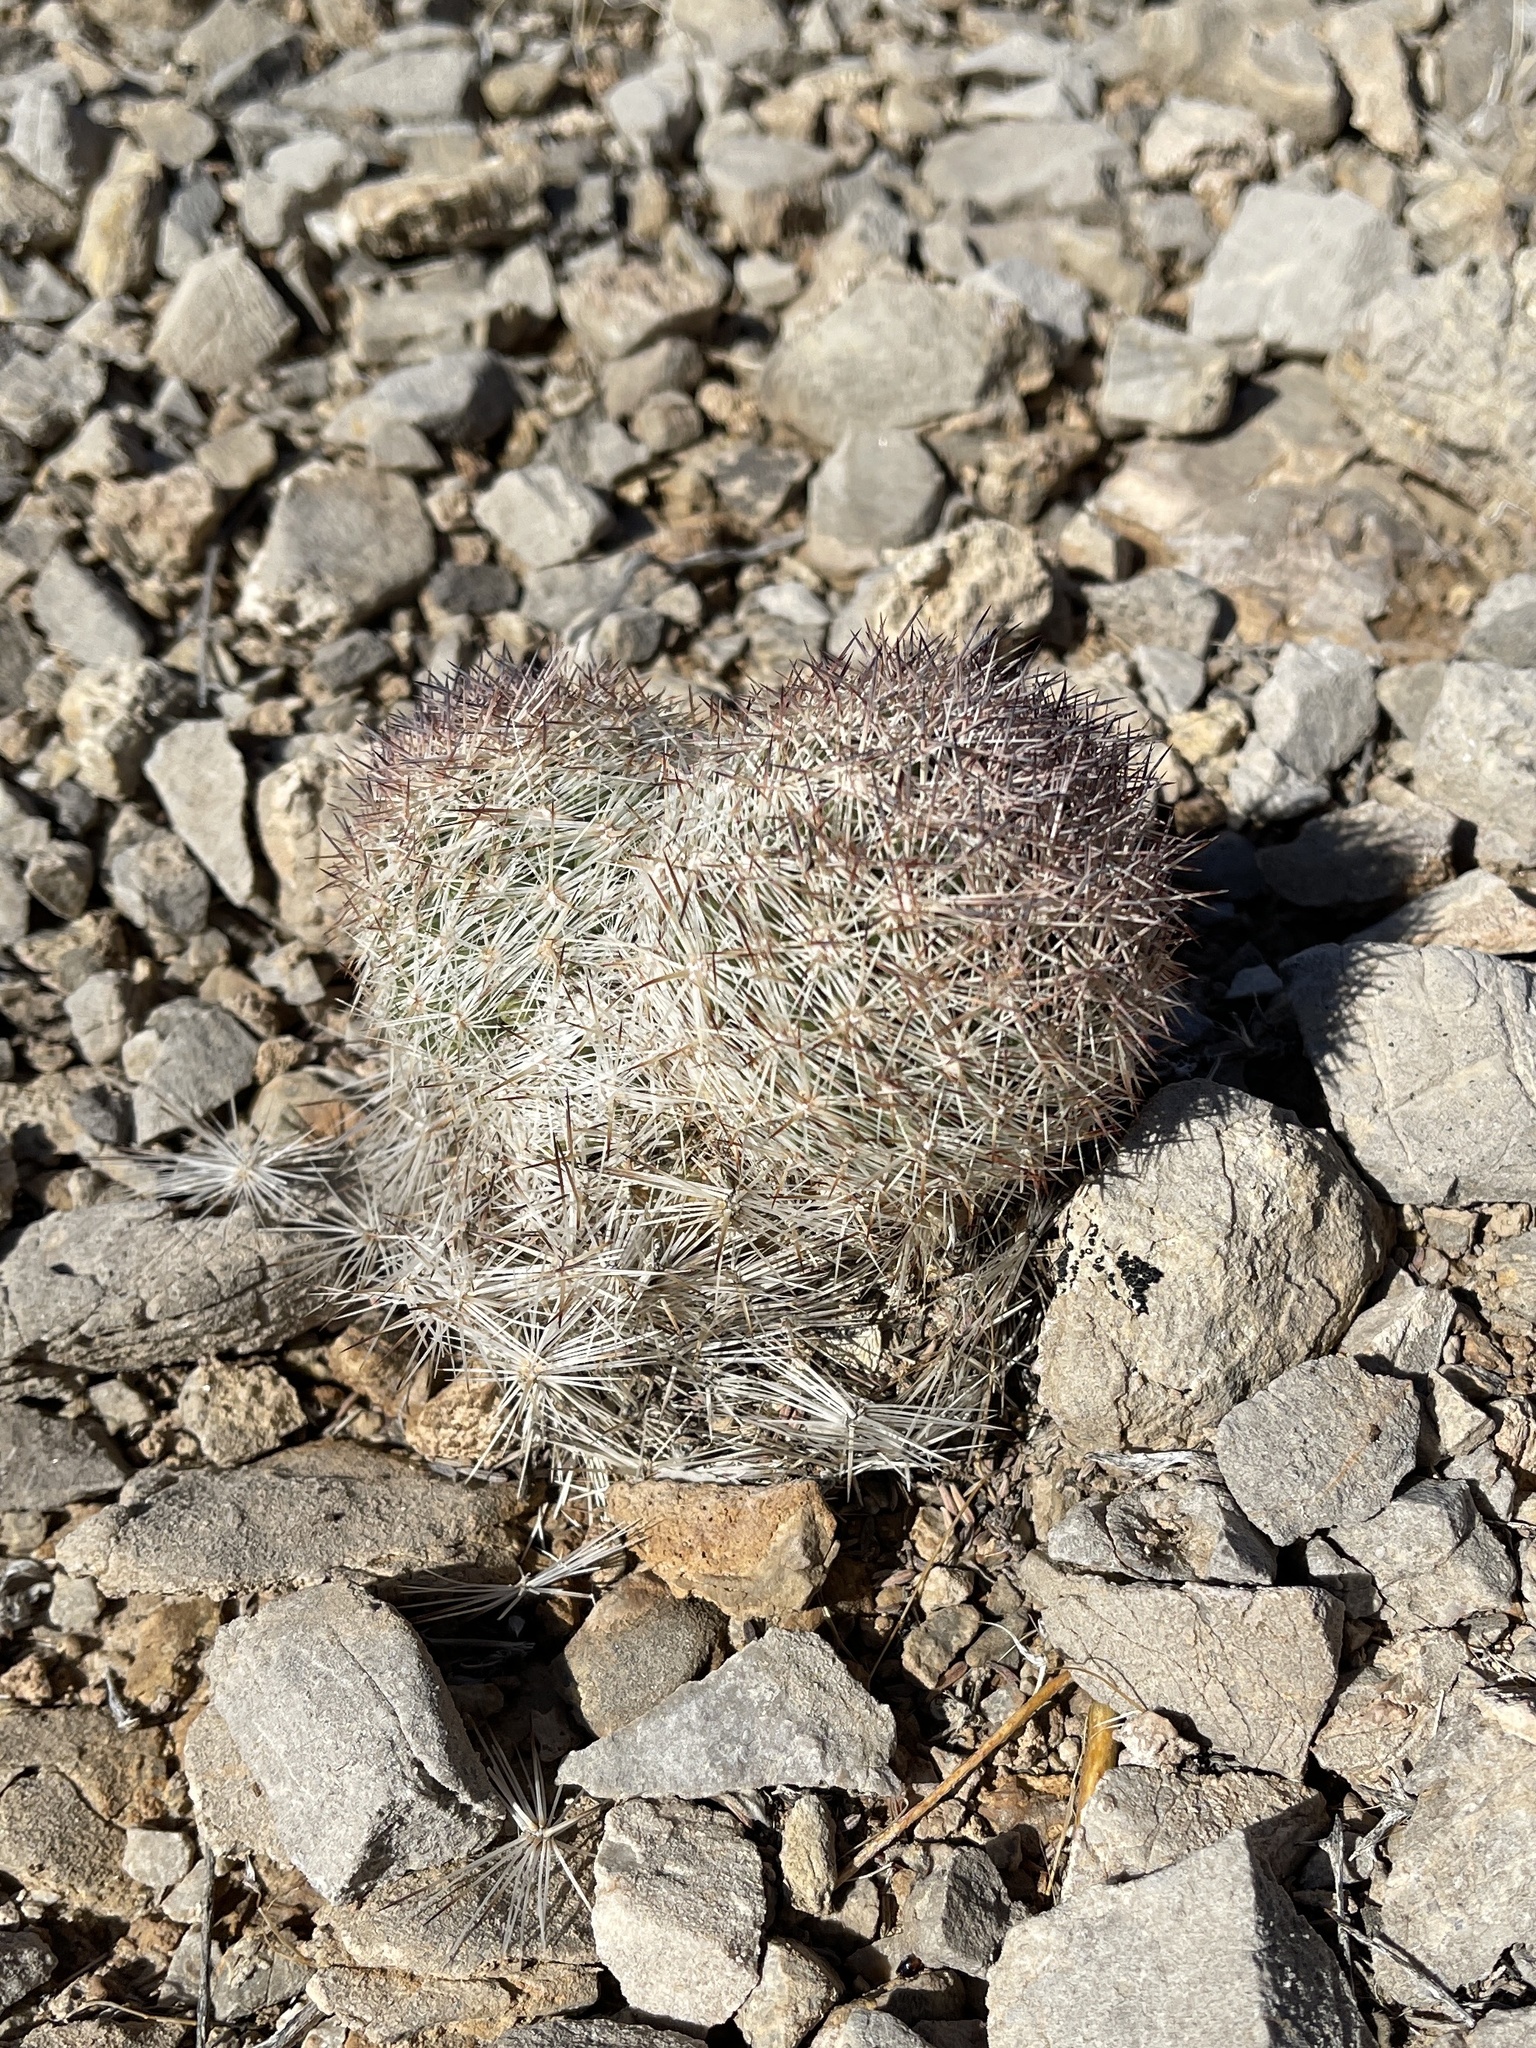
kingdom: Plantae
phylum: Tracheophyta
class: Magnoliopsida
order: Caryophyllales
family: Cactaceae
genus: Pelecyphora
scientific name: Pelecyphora dasyacantha
